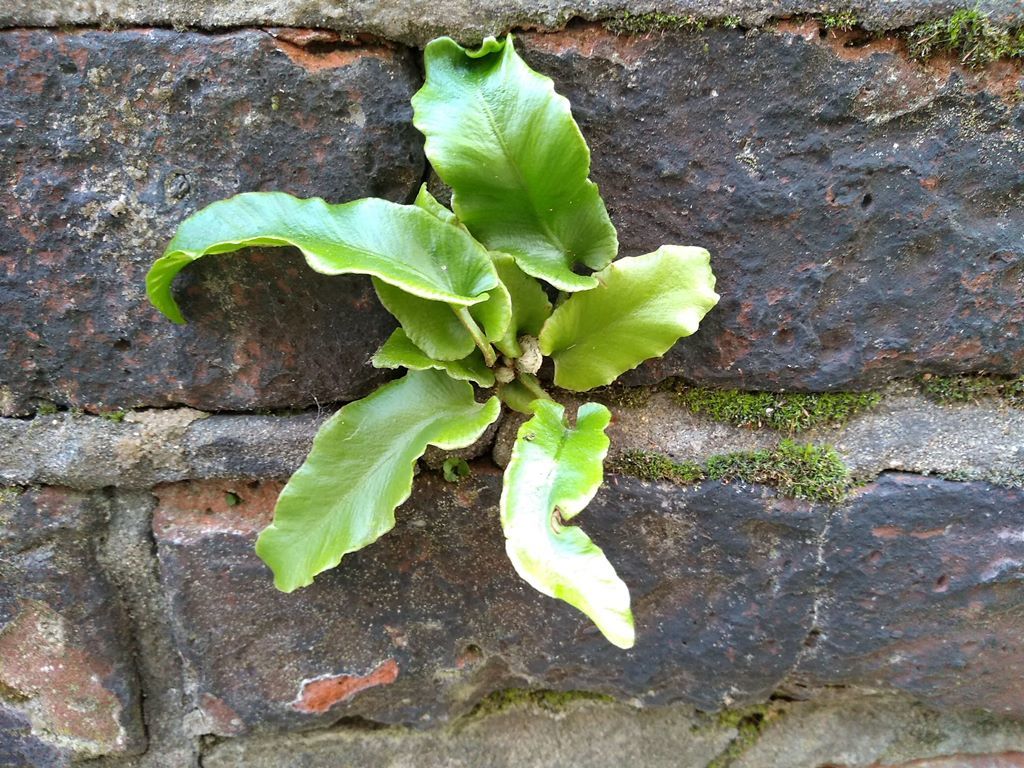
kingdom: Plantae
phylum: Tracheophyta
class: Polypodiopsida
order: Polypodiales
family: Aspleniaceae
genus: Asplenium
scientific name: Asplenium scolopendrium
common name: Hart's-tongue fern
